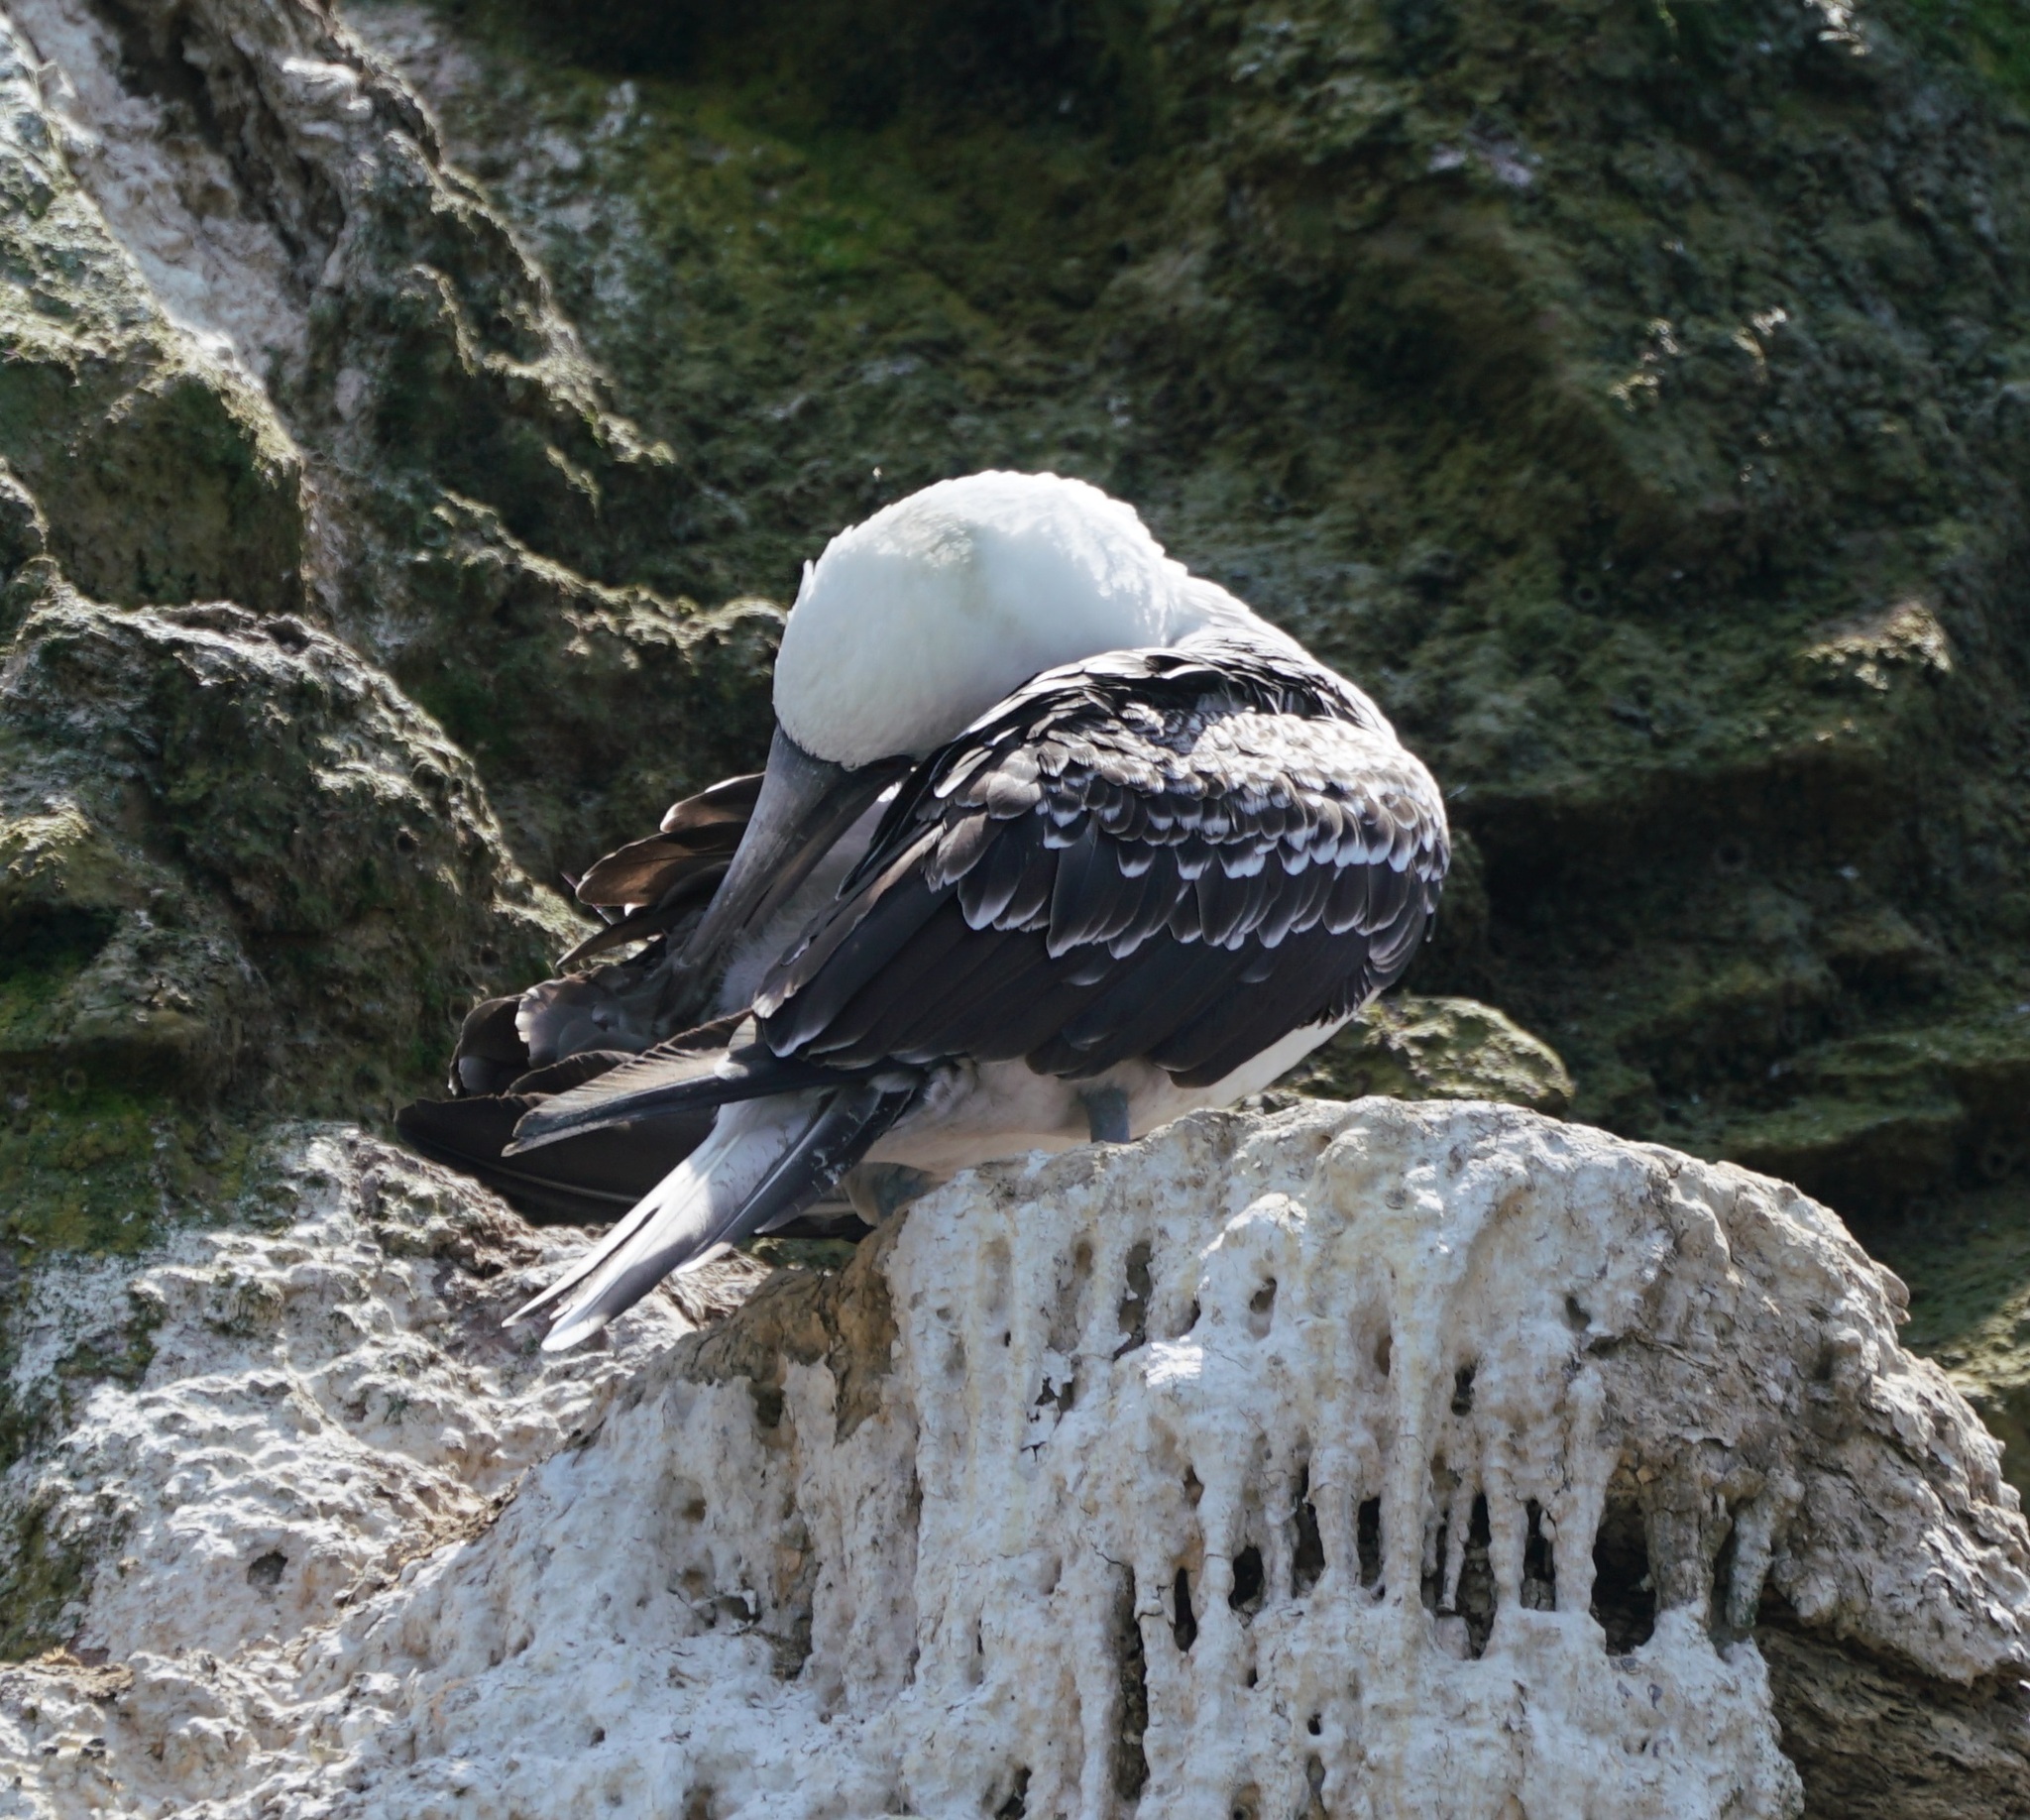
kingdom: Animalia
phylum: Chordata
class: Aves
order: Suliformes
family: Sulidae
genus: Sula
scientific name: Sula variegata
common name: Peruvian booby
